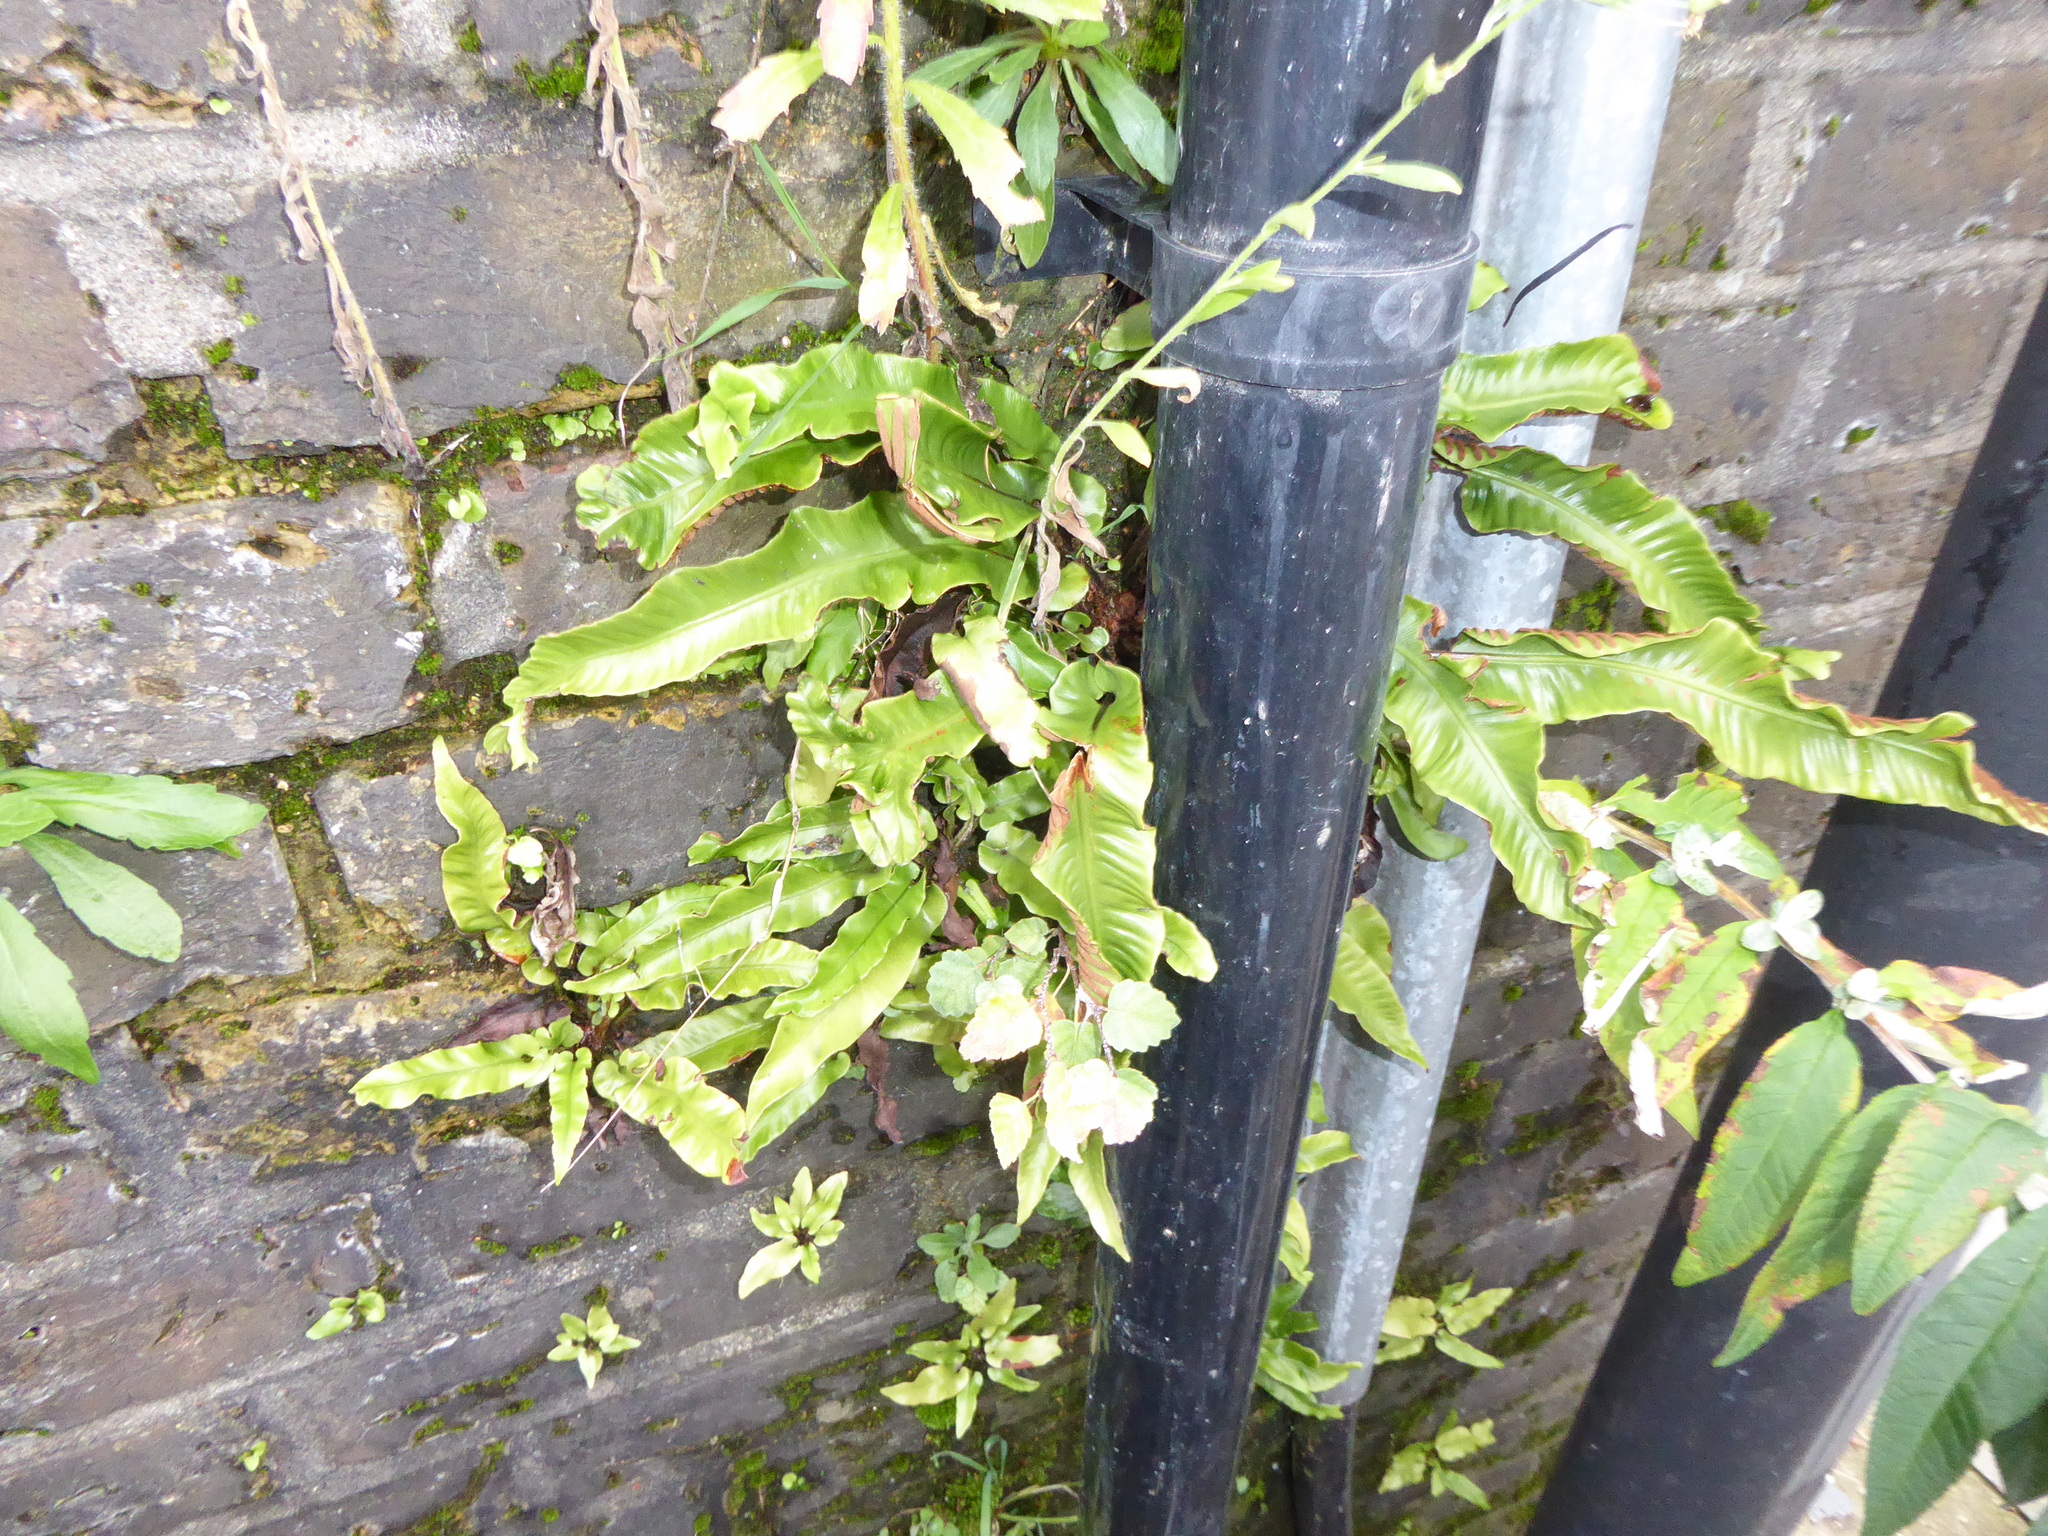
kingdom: Plantae
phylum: Tracheophyta
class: Polypodiopsida
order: Polypodiales
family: Aspleniaceae
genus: Asplenium
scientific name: Asplenium scolopendrium
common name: Hart's-tongue fern
